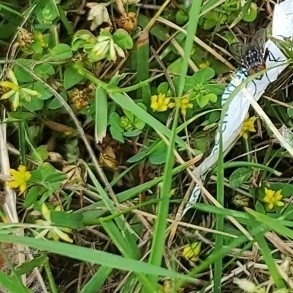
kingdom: Plantae
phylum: Tracheophyta
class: Magnoliopsida
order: Fabales
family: Fabaceae
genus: Trifolium
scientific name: Trifolium dubium
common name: Suckling clover
